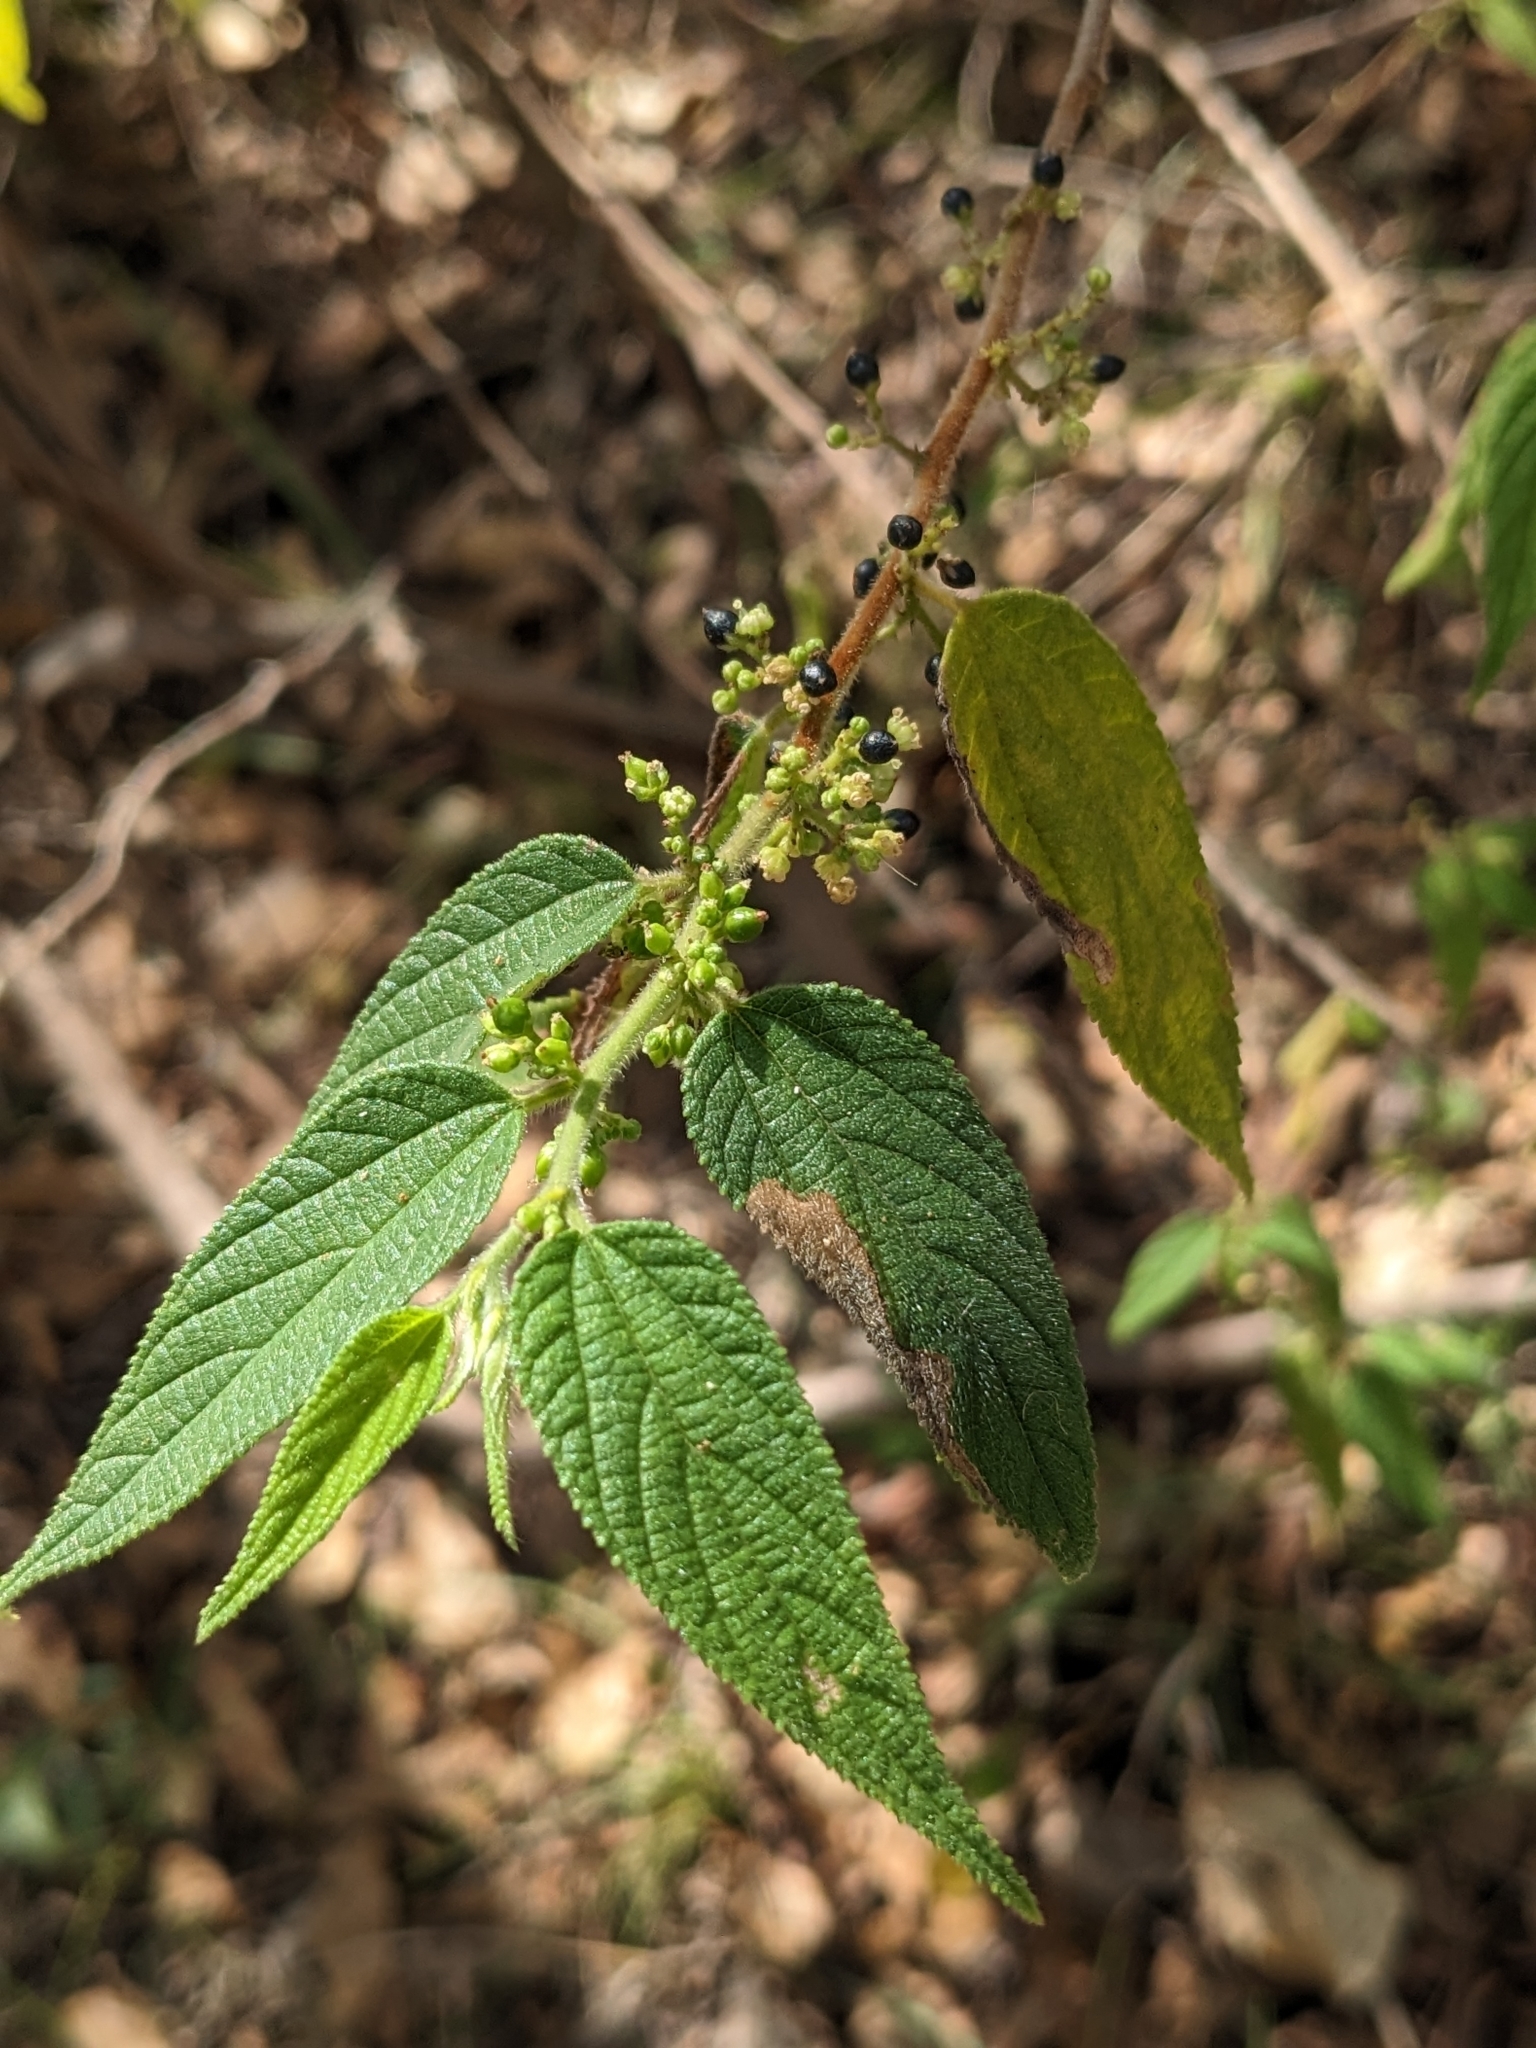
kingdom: Plantae
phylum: Tracheophyta
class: Magnoliopsida
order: Rosales
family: Cannabaceae
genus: Trema
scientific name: Trema tomentosum
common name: Peach-leaf-poisonbush
